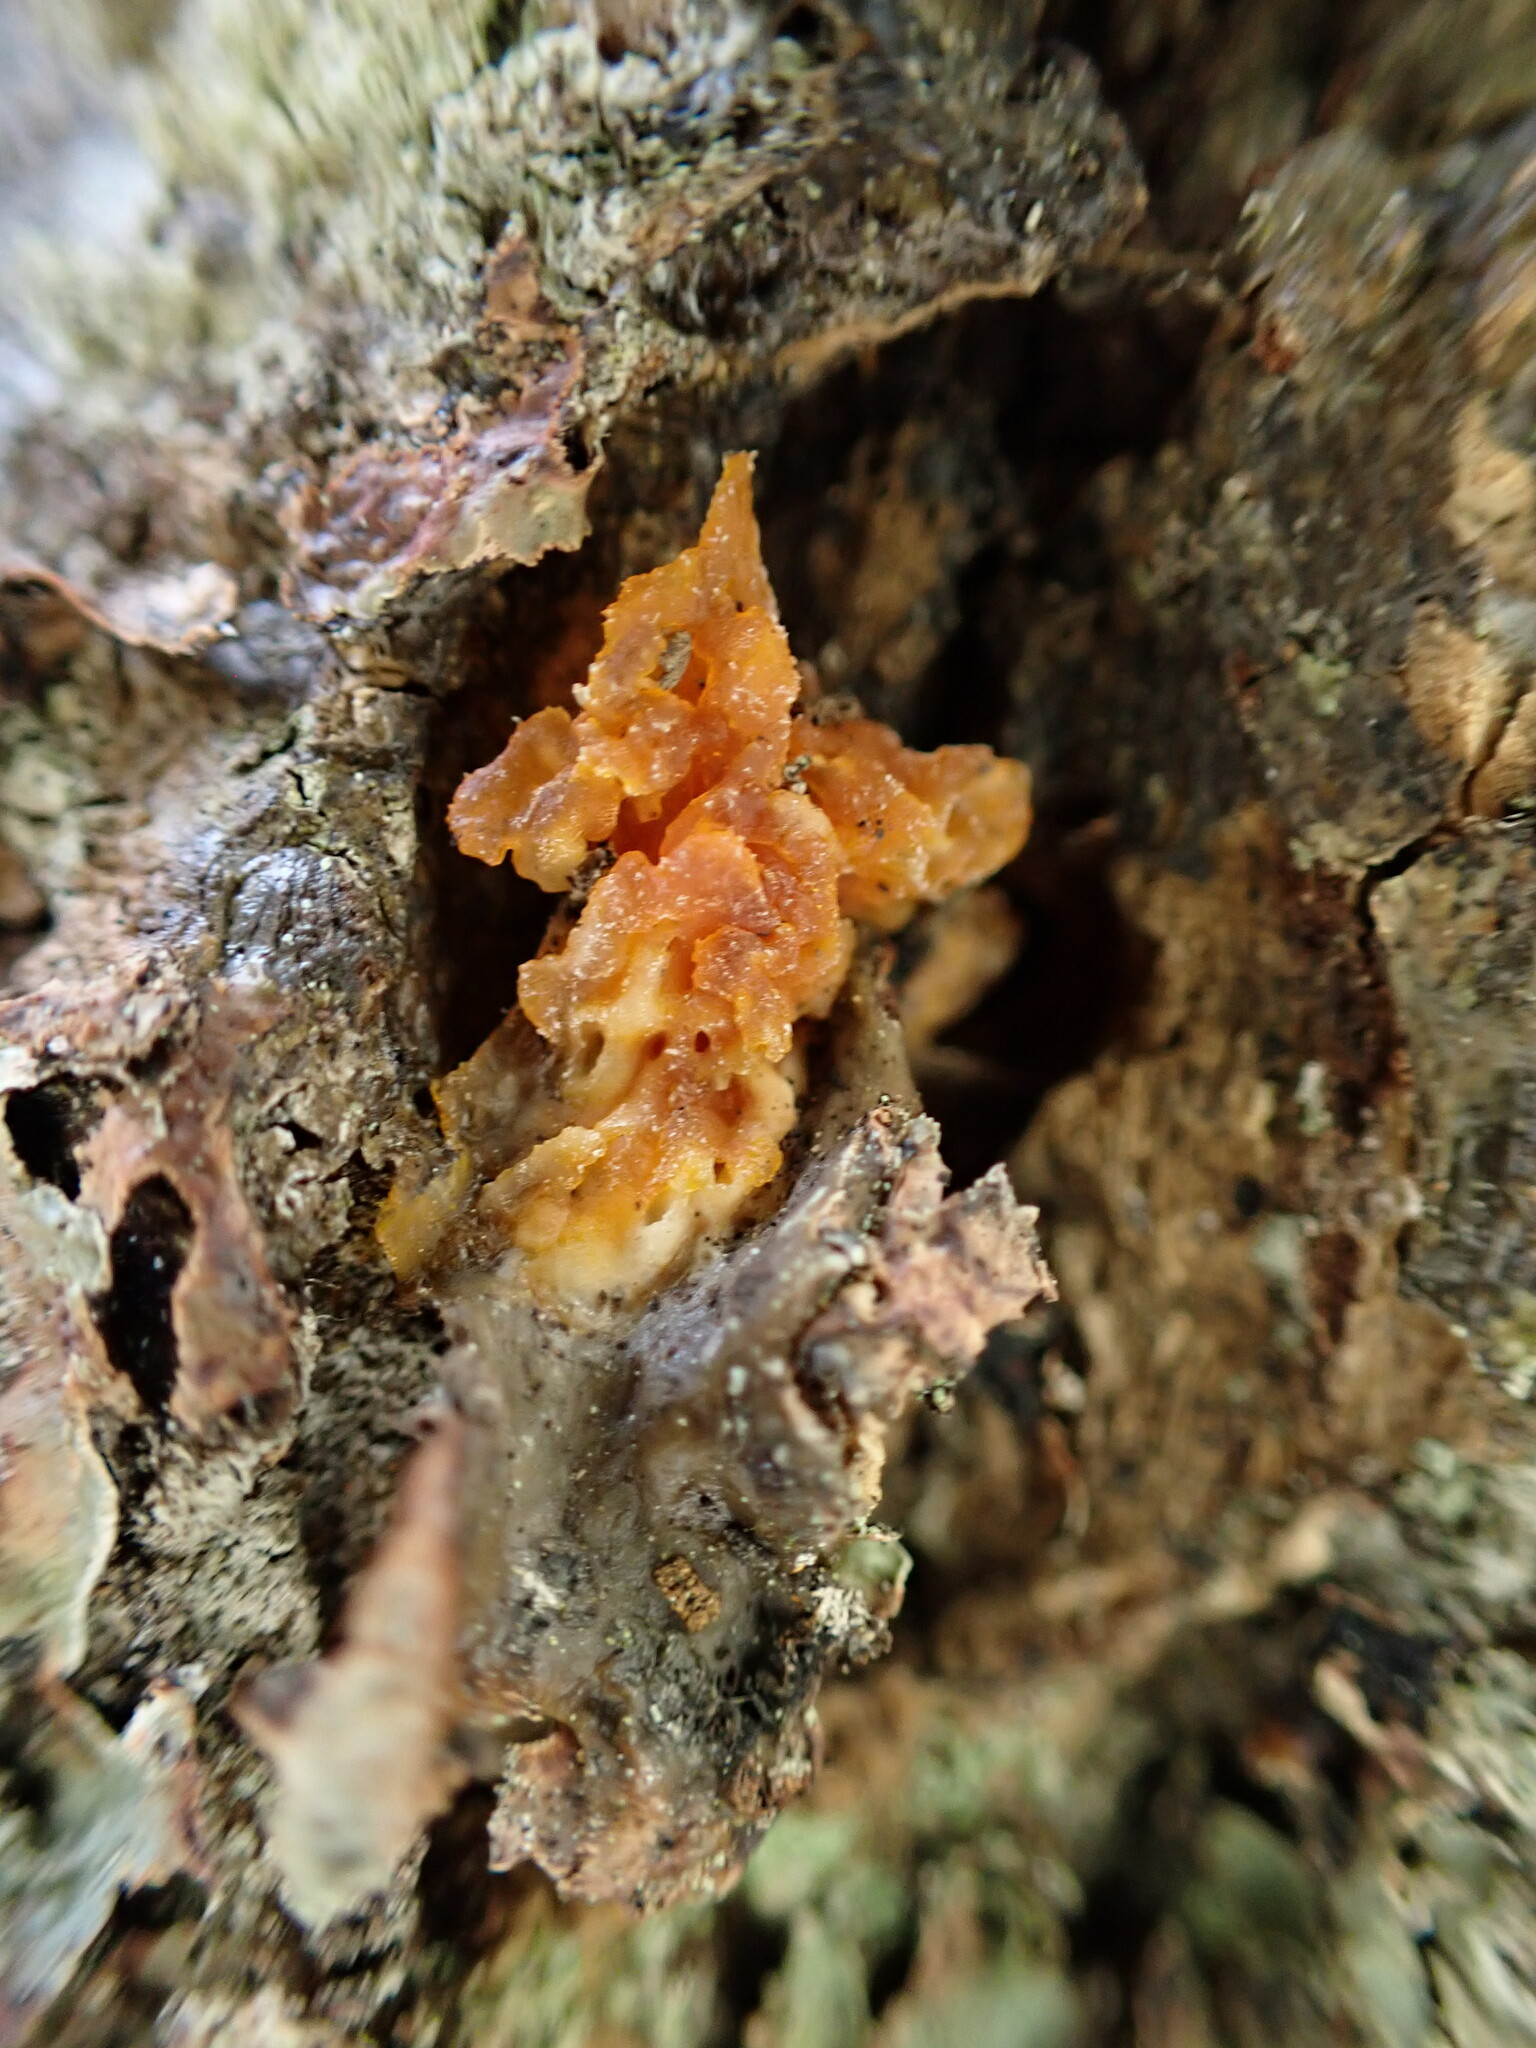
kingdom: Plantae
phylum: Tracheophyta
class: Pinopsida
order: Pinales
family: Pinaceae
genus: Pseudotsuga
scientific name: Pseudotsuga menziesii
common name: Douglas fir
